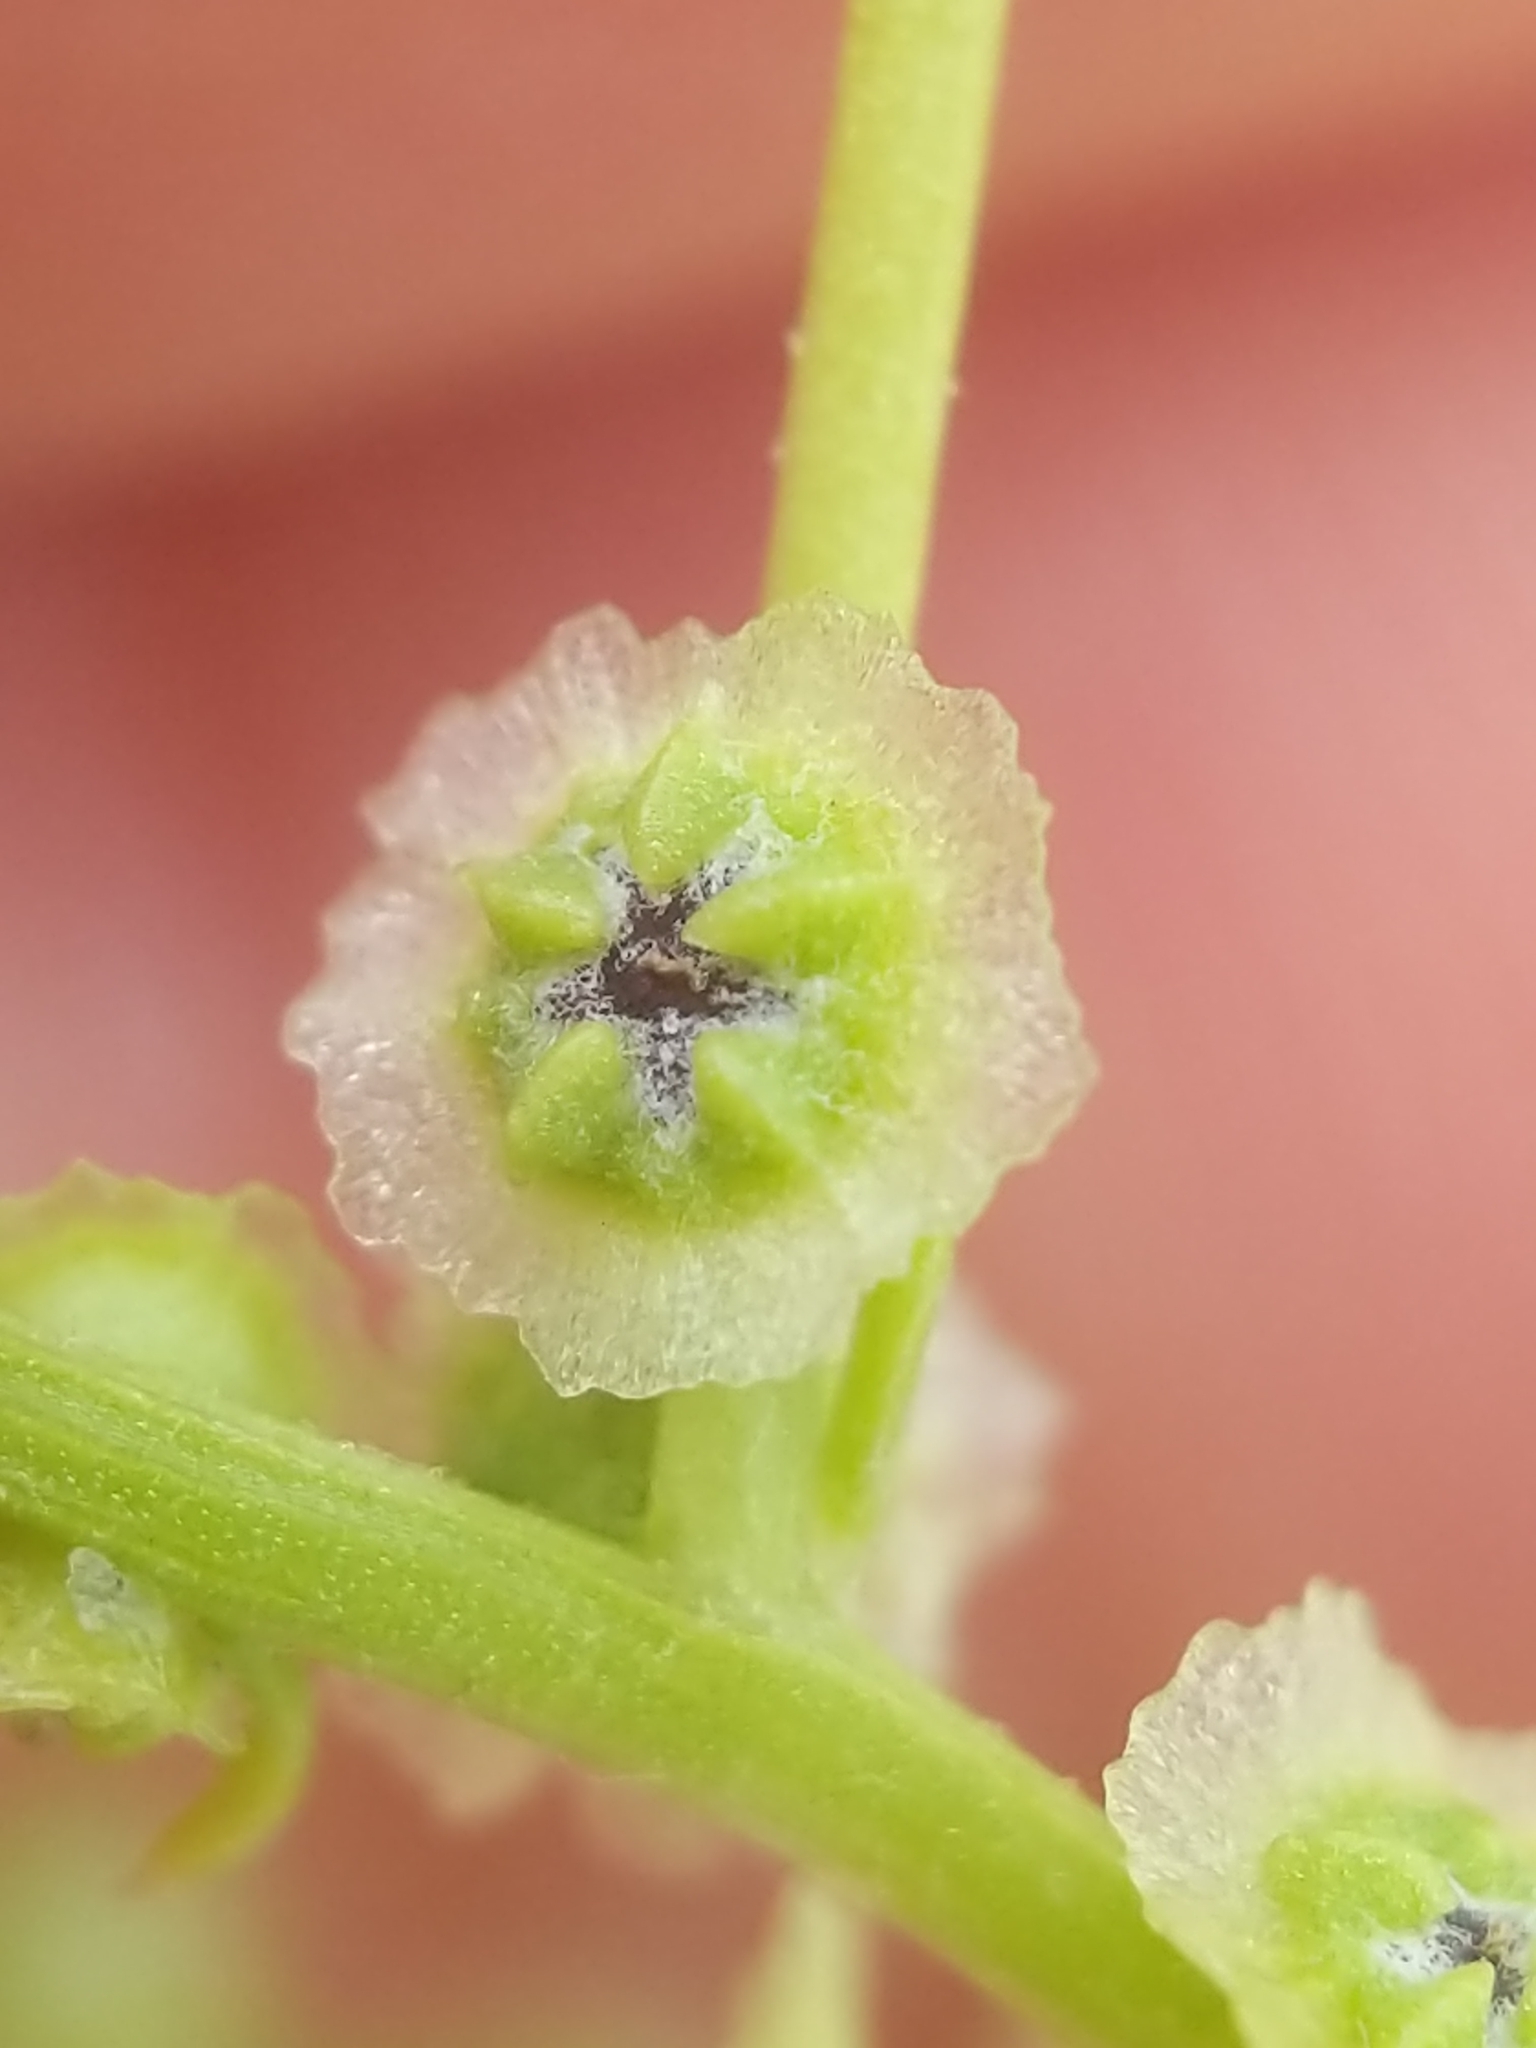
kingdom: Plantae
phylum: Tracheophyta
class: Magnoliopsida
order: Caryophyllales
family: Amaranthaceae
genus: Dysphania
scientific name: Dysphania atriplicifolia
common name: Plains tumbleweed
